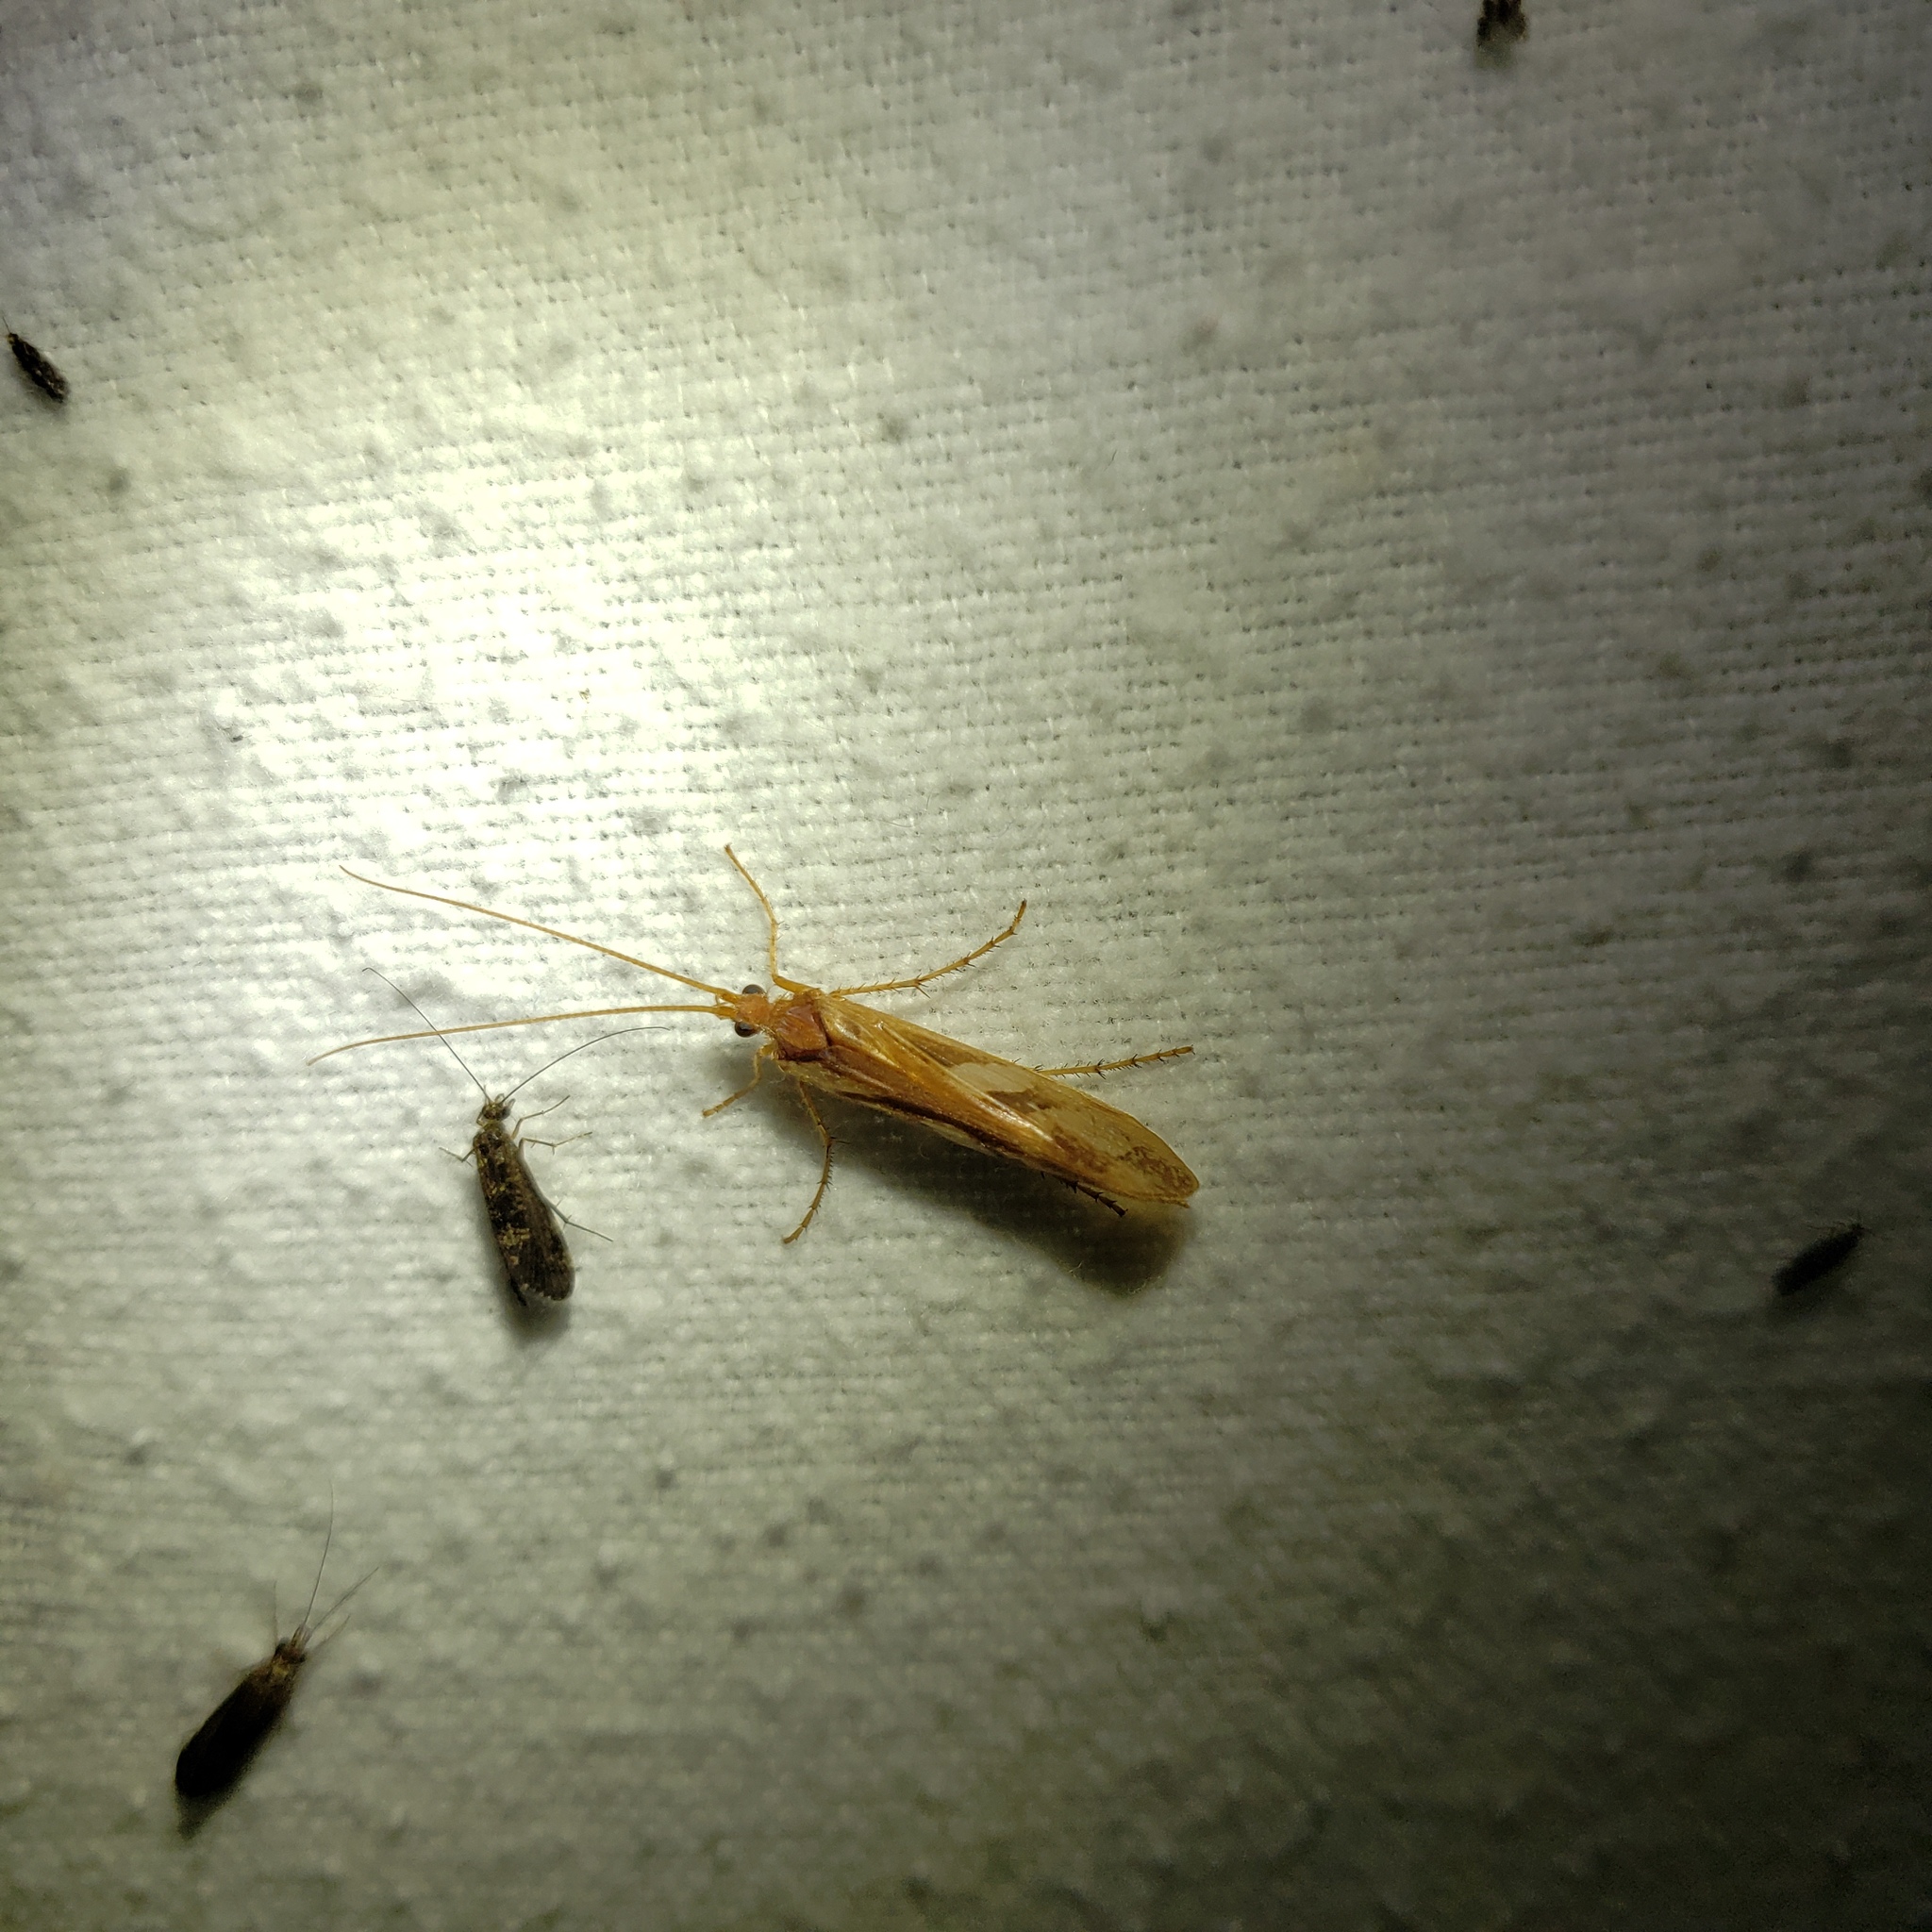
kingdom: Animalia
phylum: Arthropoda
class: Insecta
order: Trichoptera
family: Limnephilidae
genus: Limnephilus
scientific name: Limnephilus rhombicus
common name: Diamond northern caddisfly
